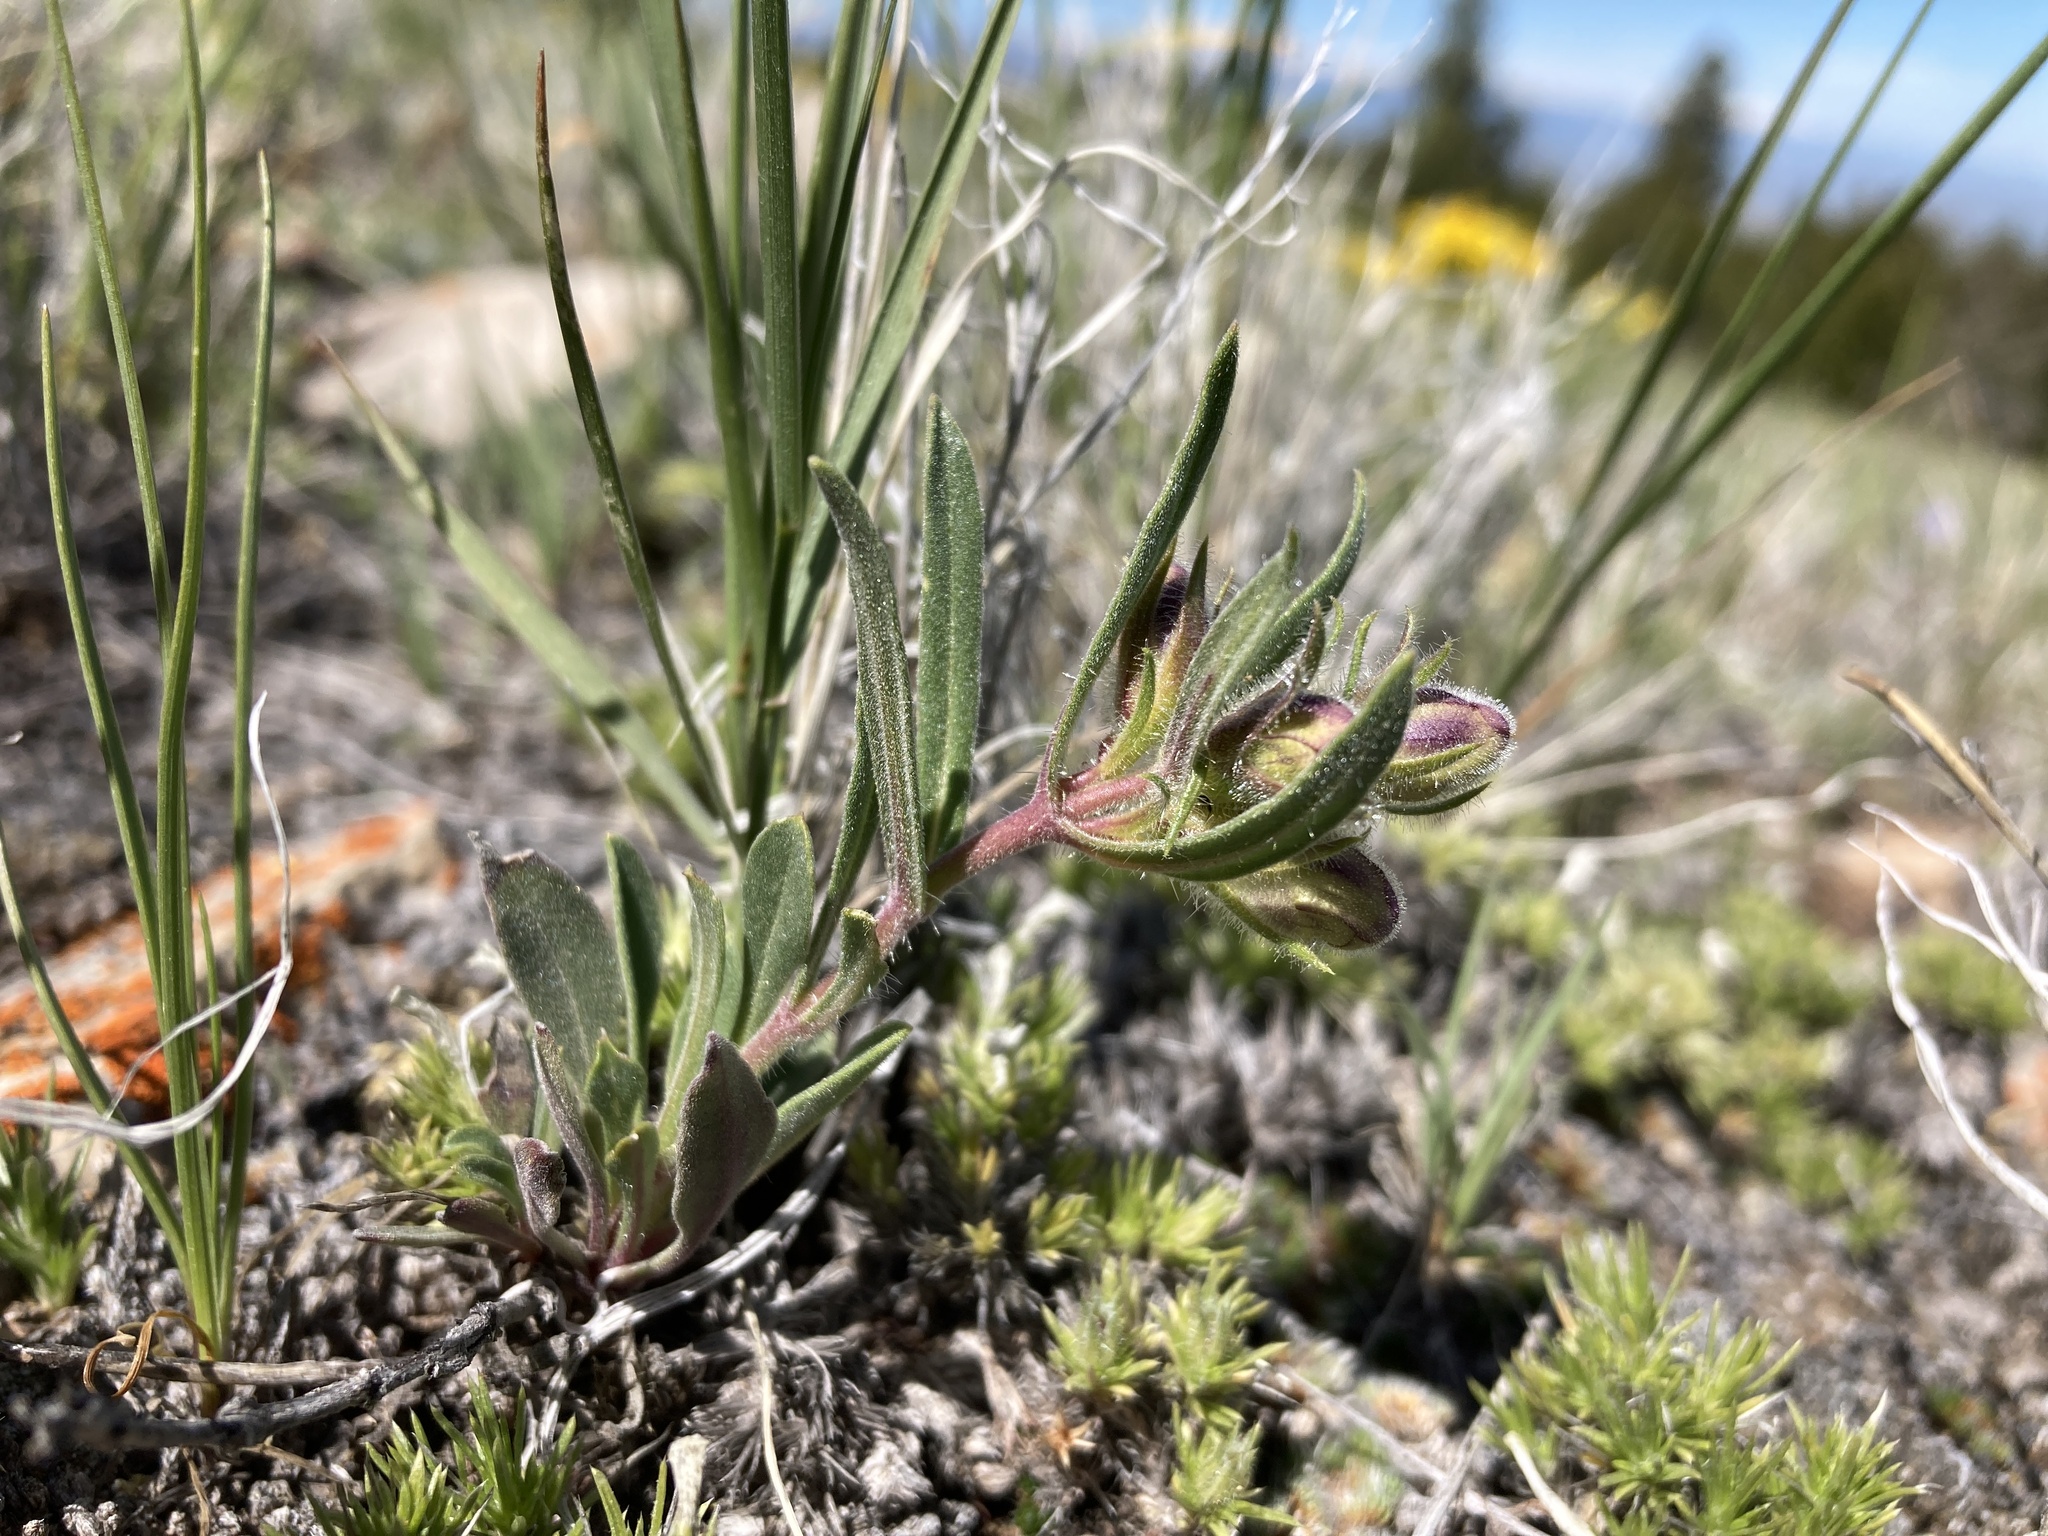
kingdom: Plantae
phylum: Tracheophyta
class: Magnoliopsida
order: Lamiales
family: Plantaginaceae
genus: Penstemon
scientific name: Penstemon eriantherus
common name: Crested beardtongue
